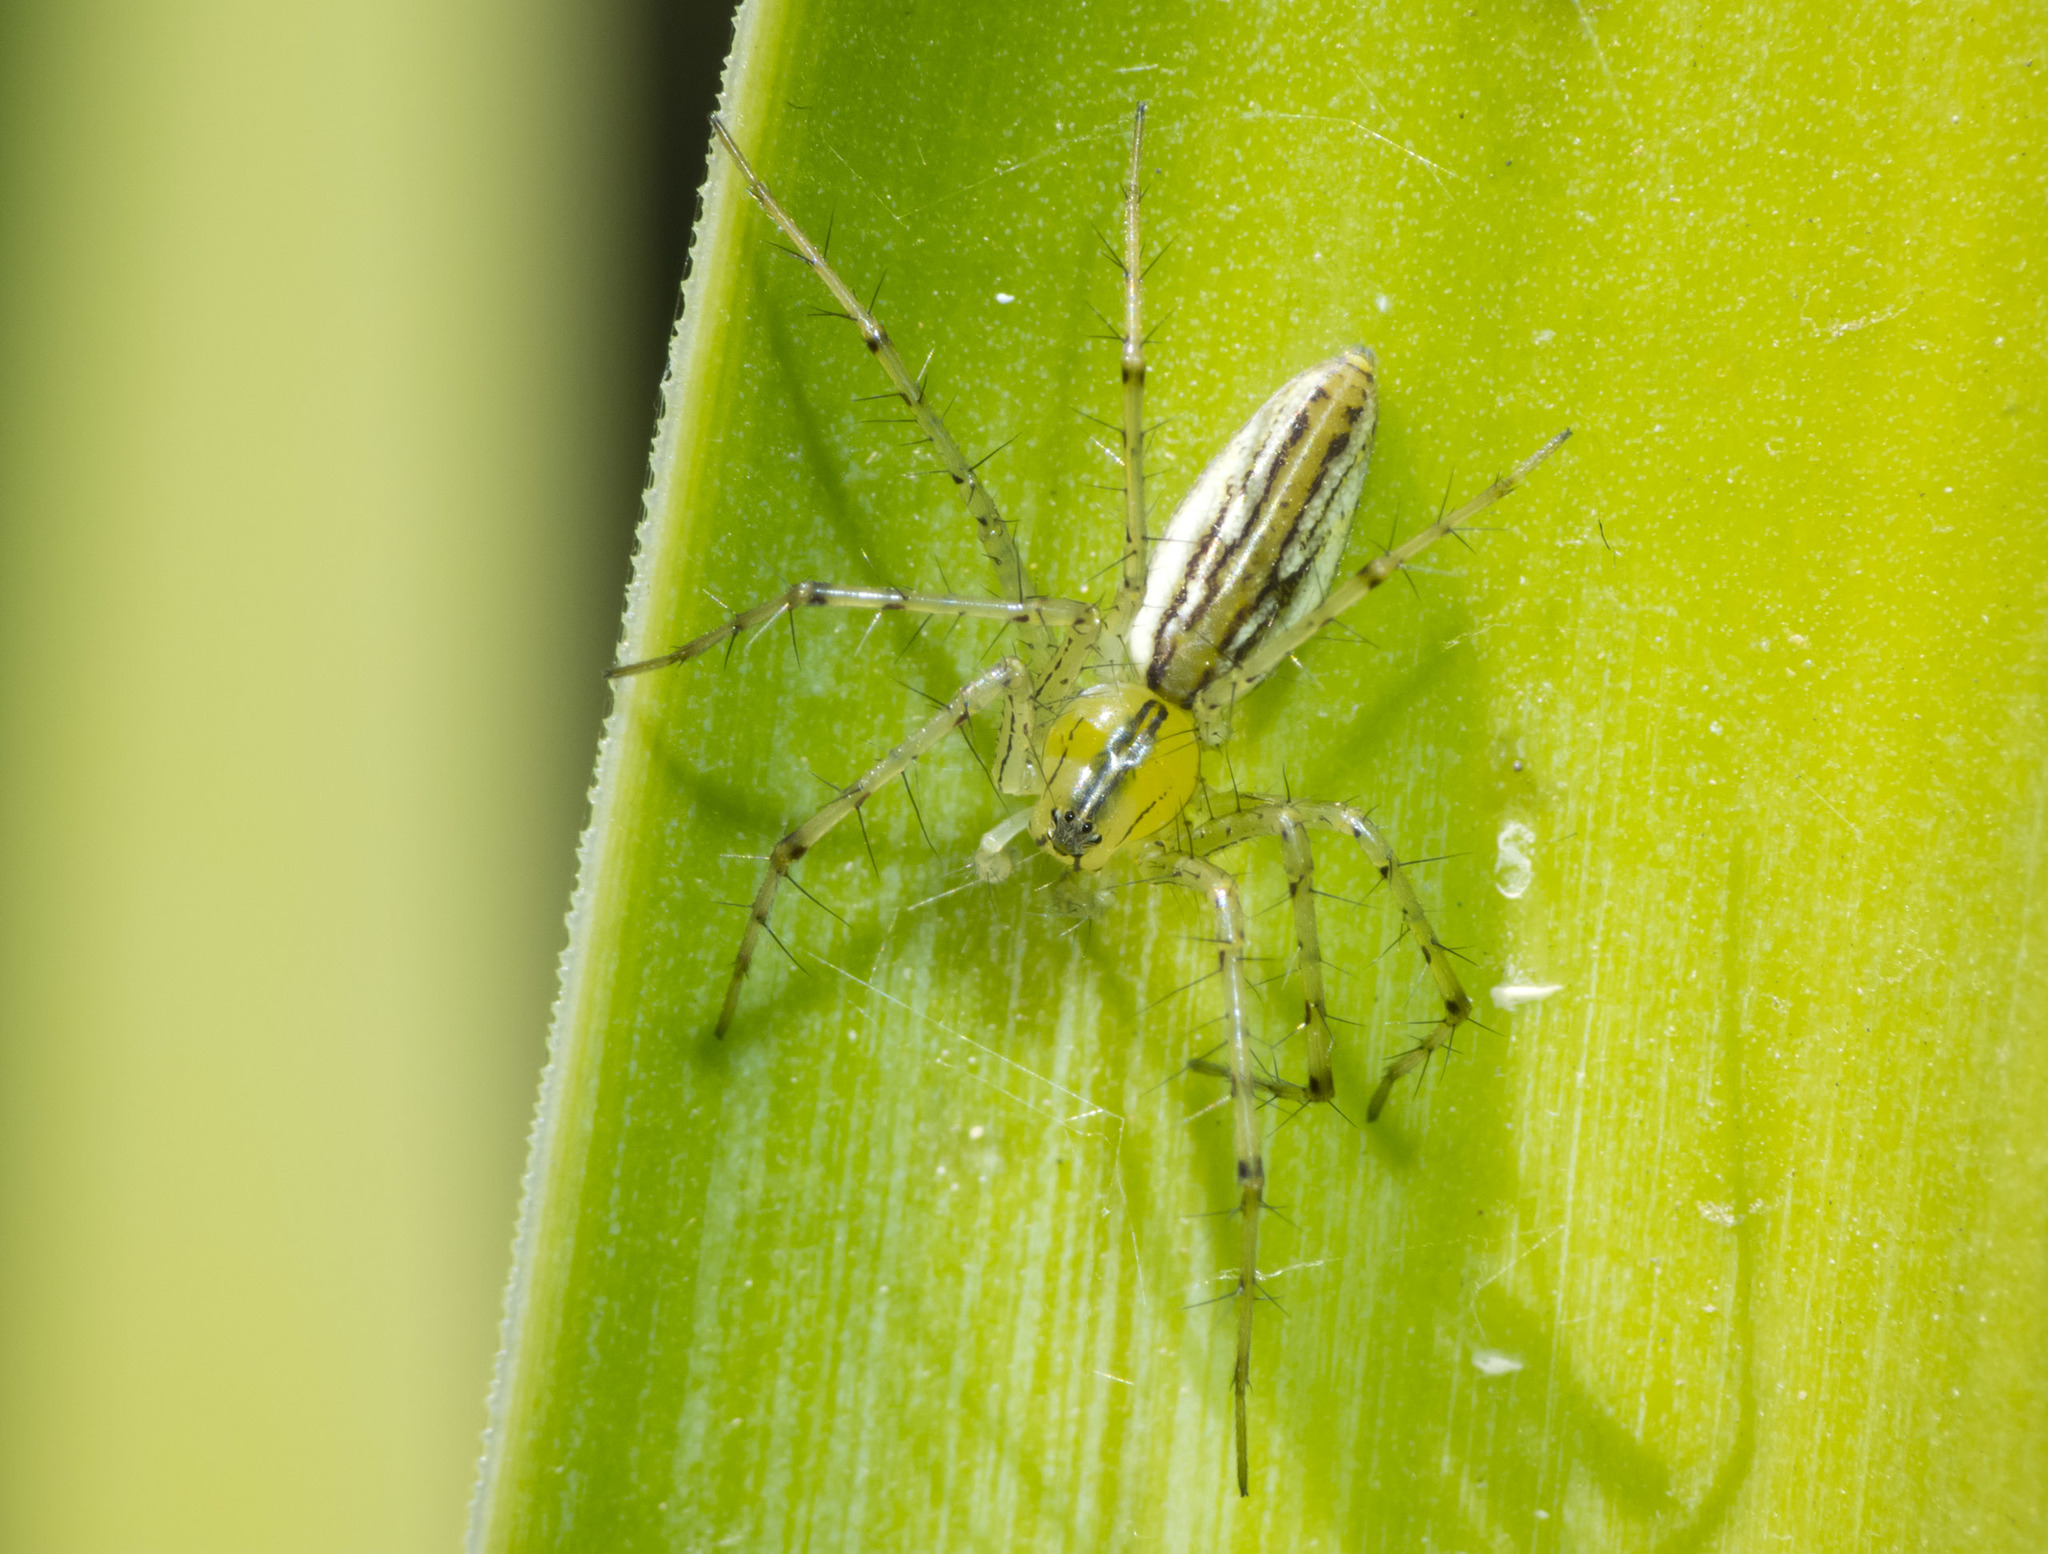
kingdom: Animalia
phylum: Arthropoda
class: Arachnida
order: Araneae
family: Oxyopidae
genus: Peucetia
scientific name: Peucetia rubrolineata
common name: Lynx spiders
